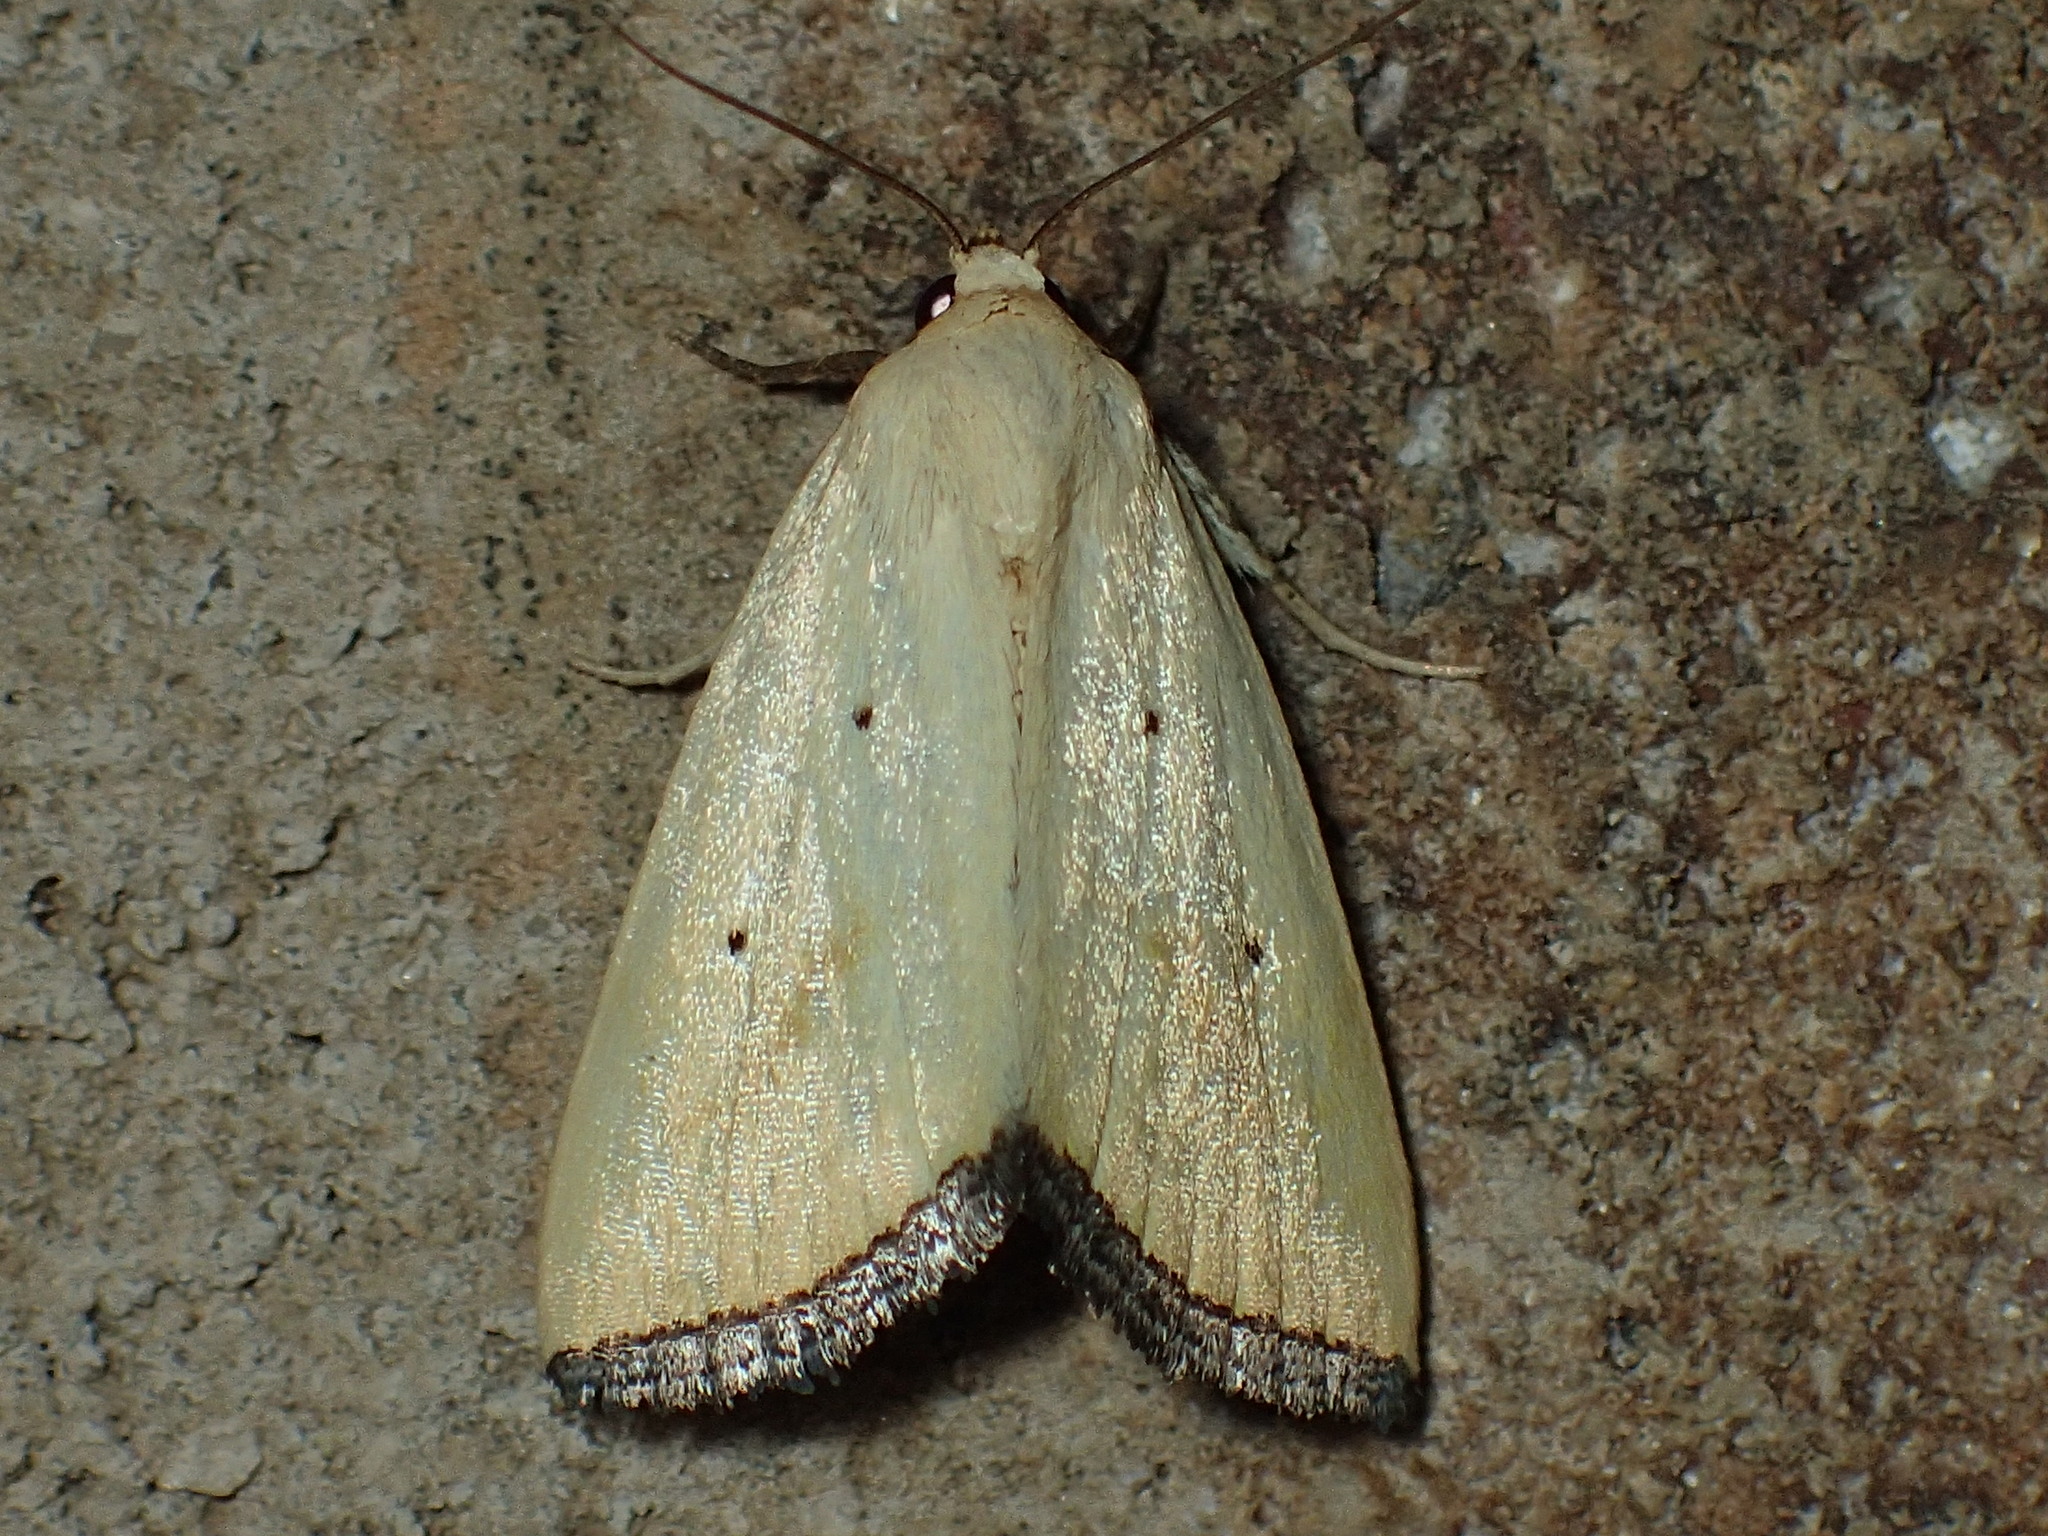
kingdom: Animalia
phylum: Arthropoda
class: Insecta
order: Lepidoptera
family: Noctuidae
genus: Marimatha
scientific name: Marimatha nigrofimbria
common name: Black-bordered lemon moth
